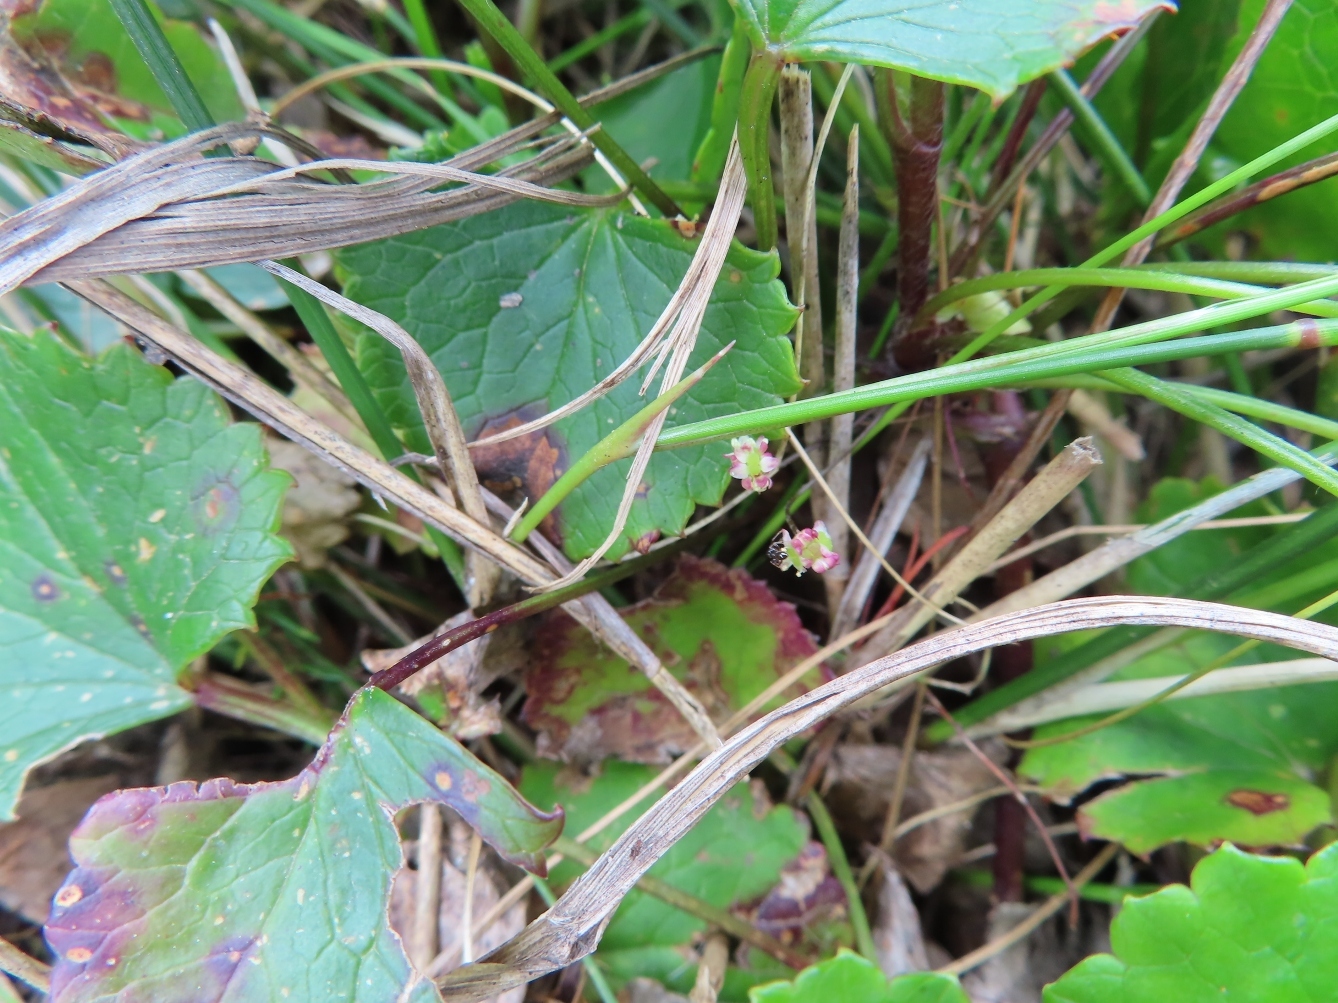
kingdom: Plantae
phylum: Tracheophyta
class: Magnoliopsida
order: Apiales
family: Apiaceae
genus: Centella
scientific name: Centella eriantha
